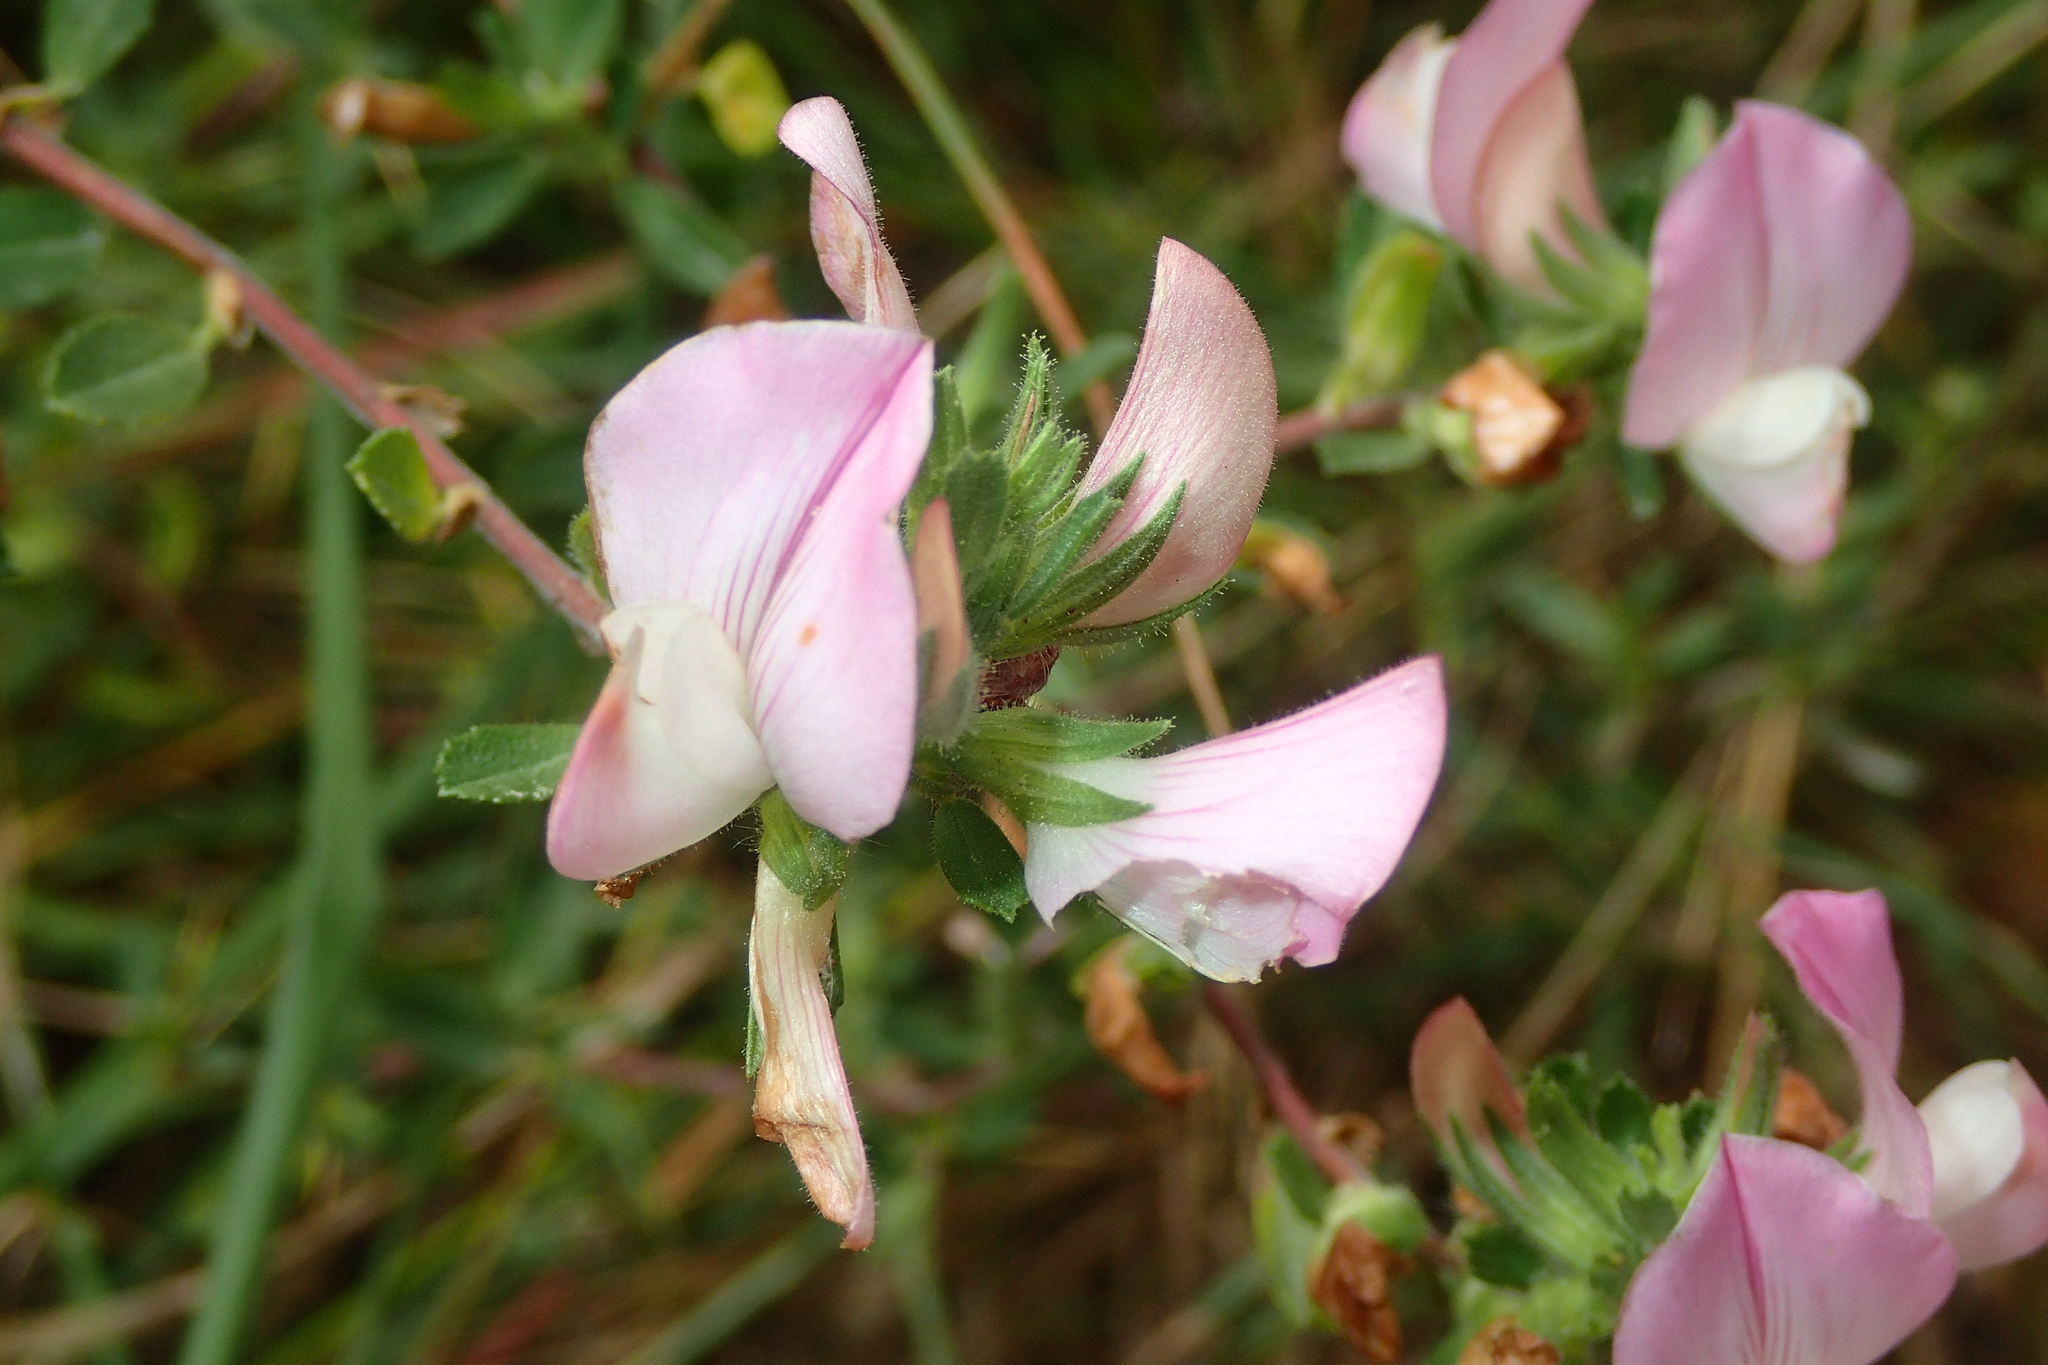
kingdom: Plantae
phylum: Tracheophyta
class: Magnoliopsida
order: Fabales
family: Fabaceae
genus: Ononis
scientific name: Ononis spinosa
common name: Spiny restharrow
